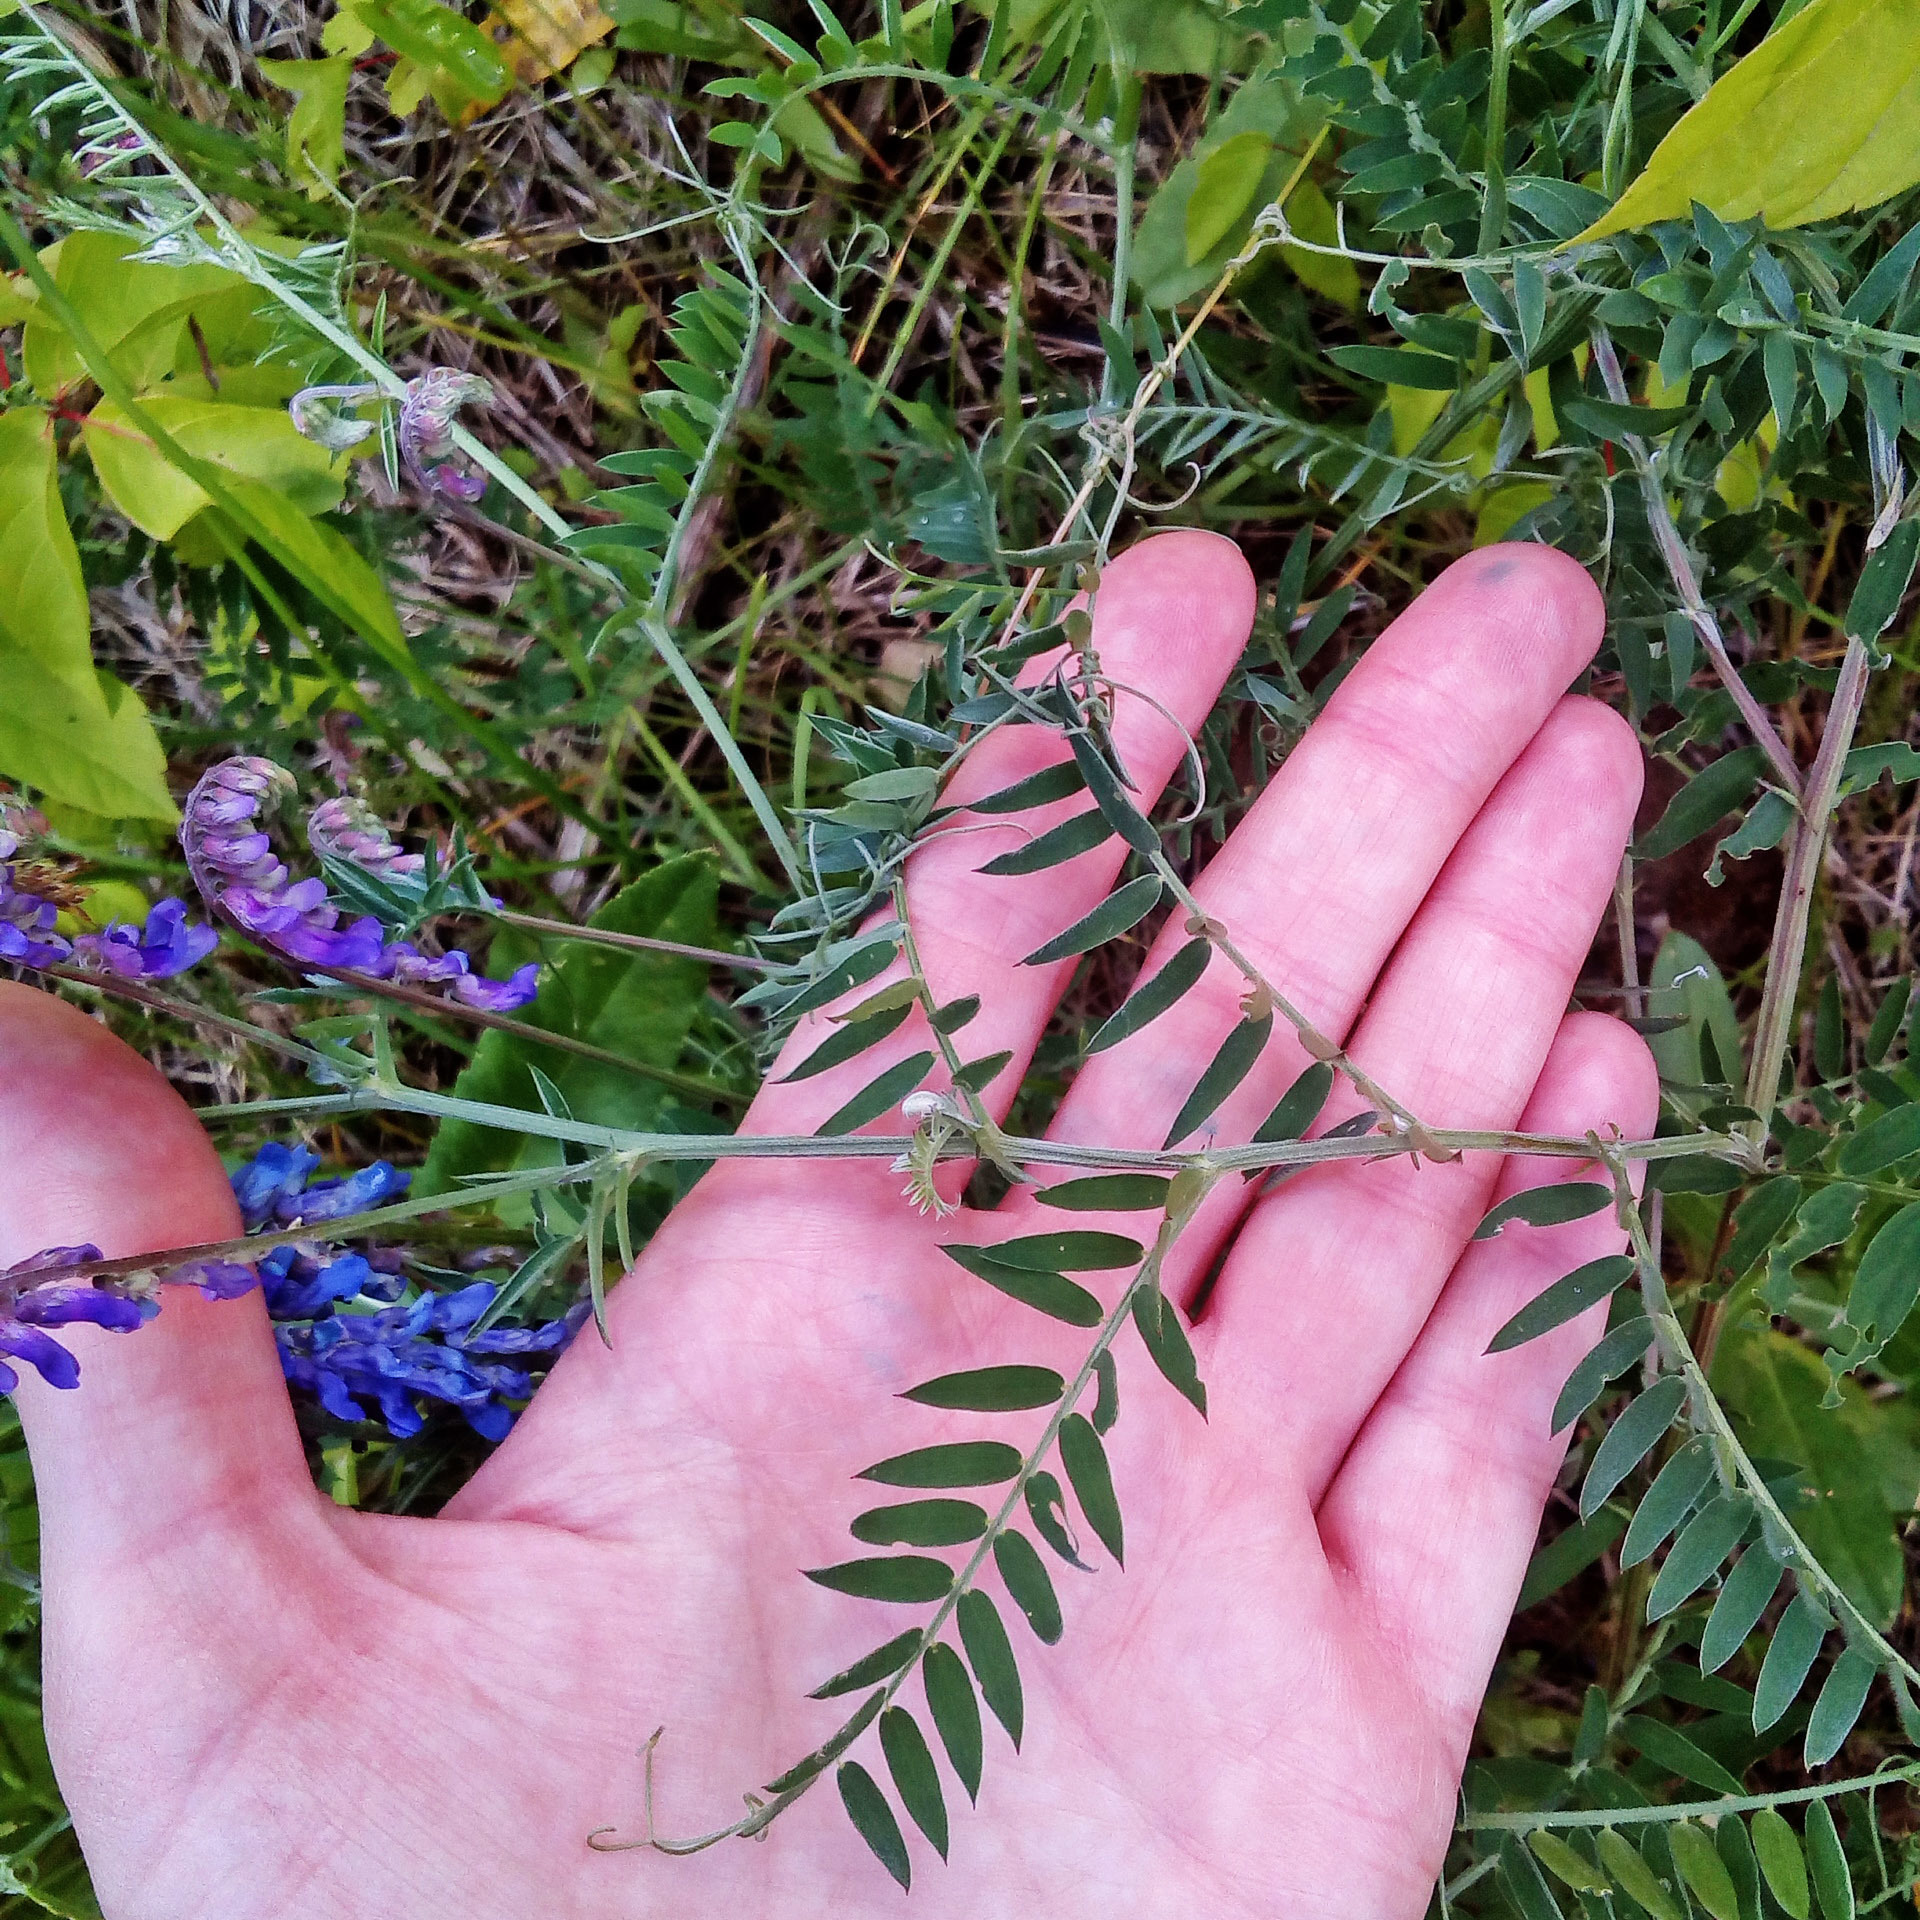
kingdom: Plantae
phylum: Tracheophyta
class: Magnoliopsida
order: Fabales
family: Fabaceae
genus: Vicia
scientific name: Vicia cracca
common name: Bird vetch
